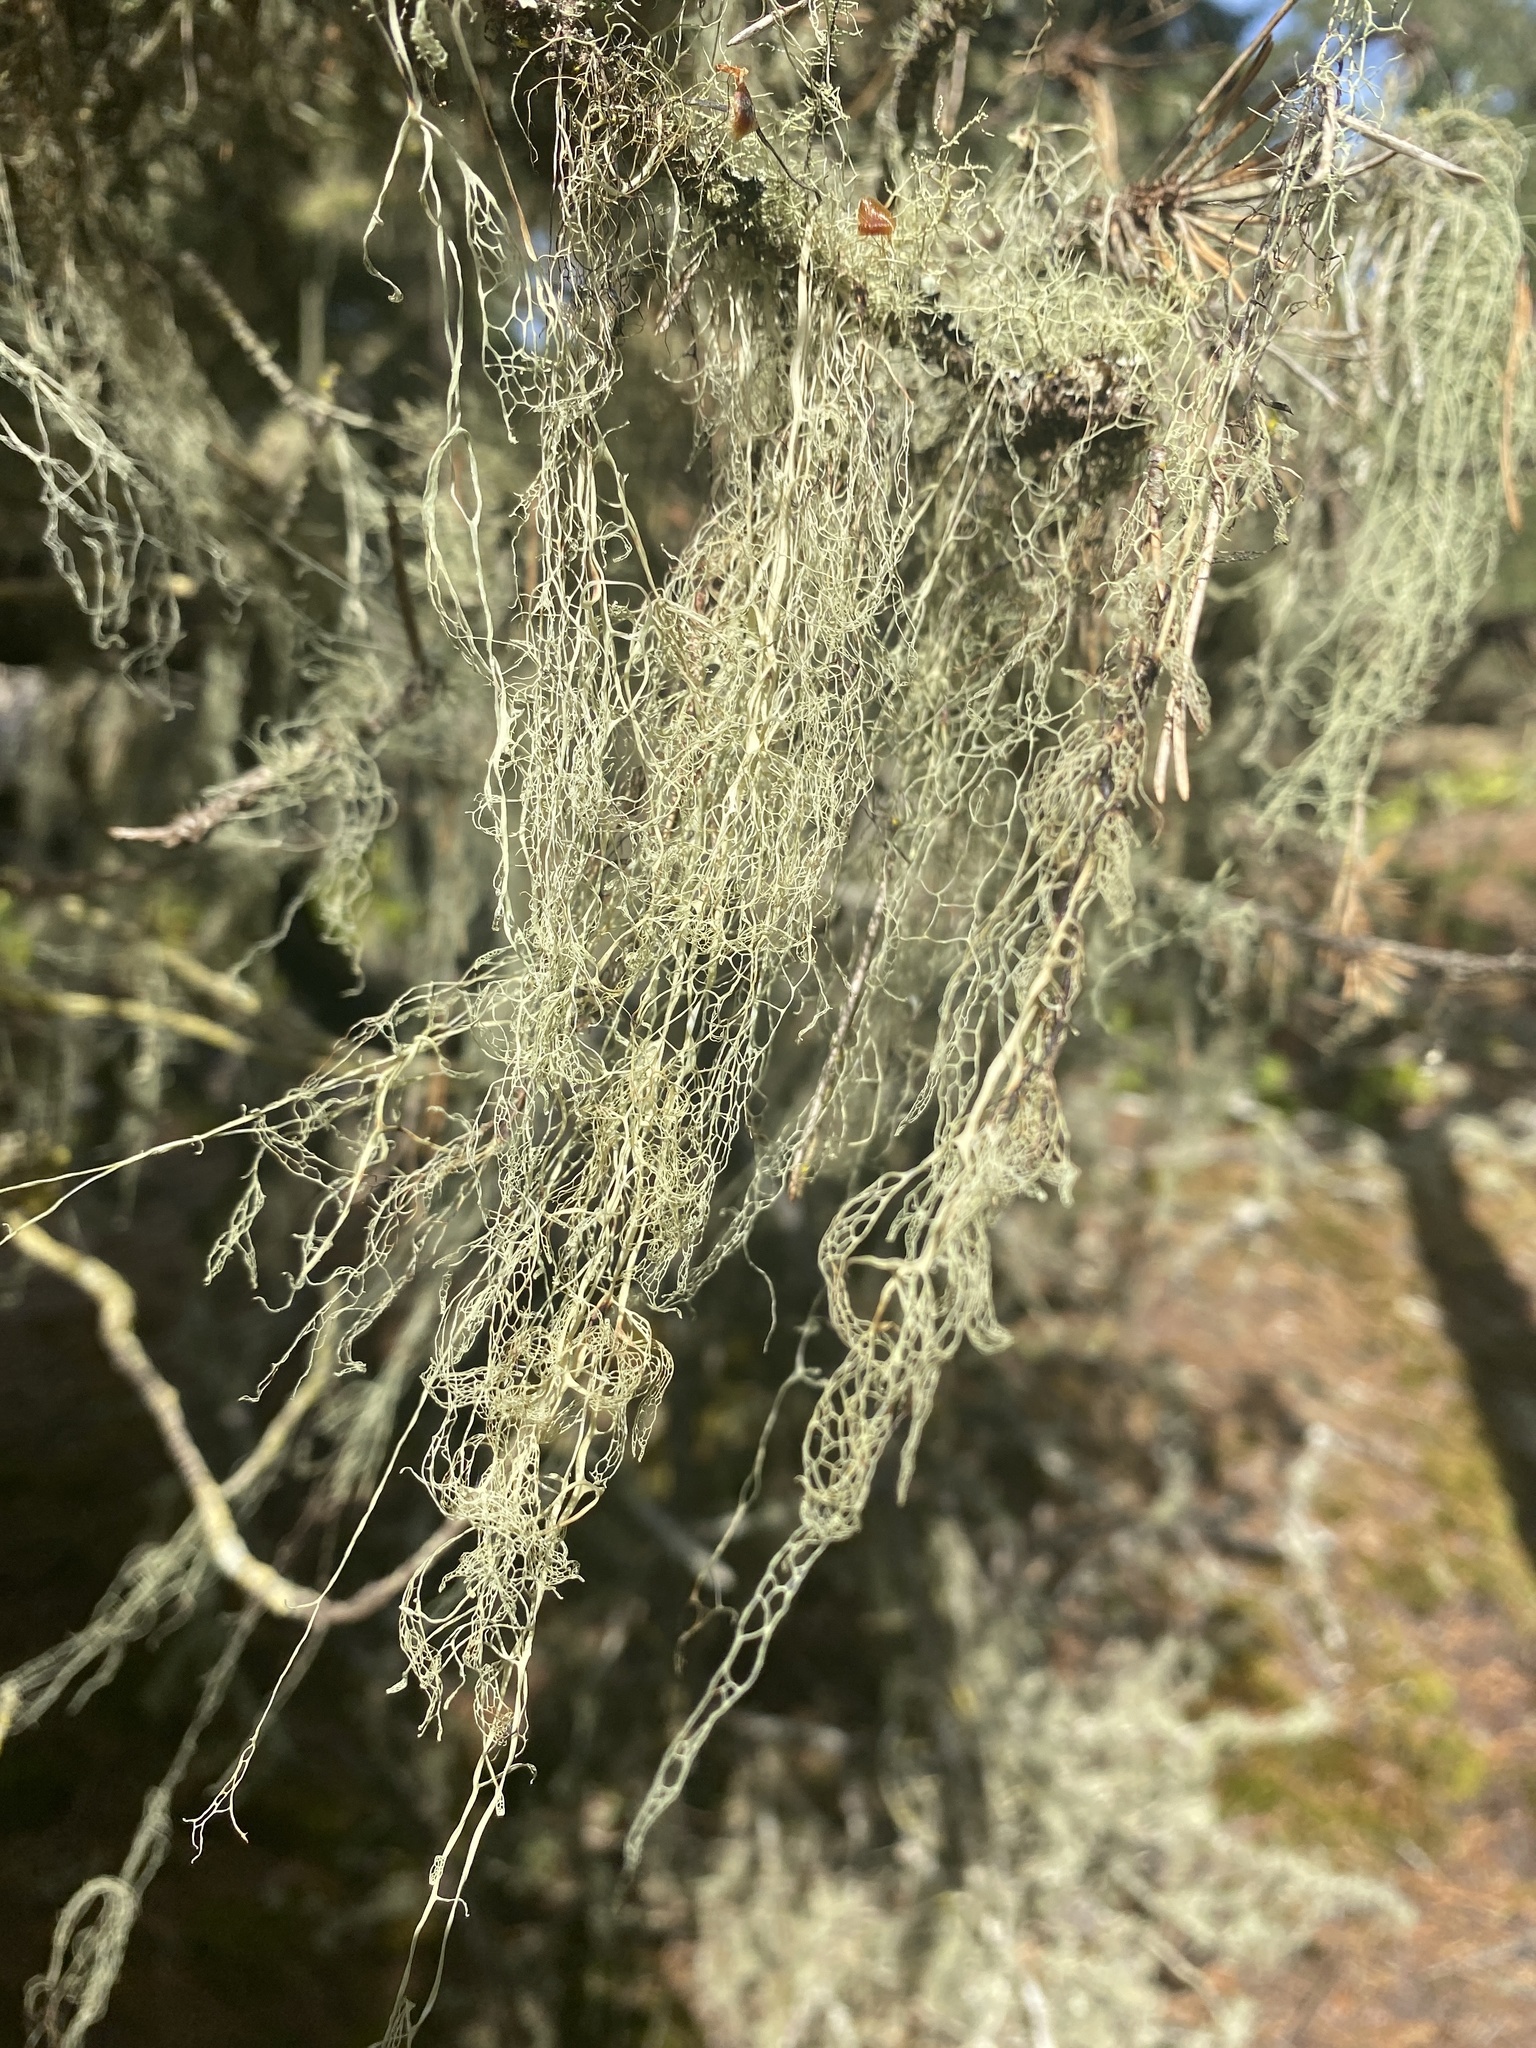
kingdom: Fungi
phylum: Ascomycota
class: Lecanoromycetes
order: Lecanorales
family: Ramalinaceae
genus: Ramalina
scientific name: Ramalina menziesii
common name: Lace lichen
